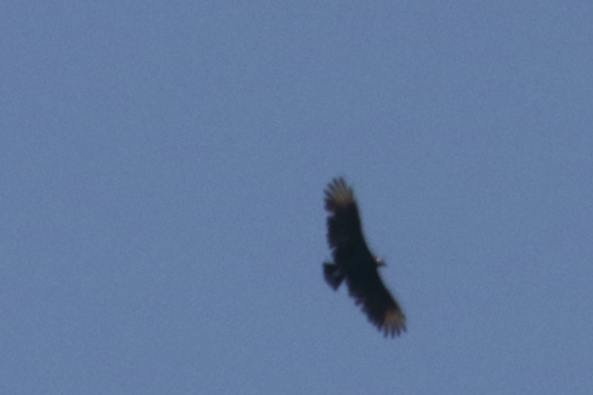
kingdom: Animalia
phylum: Chordata
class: Aves
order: Accipitriformes
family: Cathartidae
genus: Coragyps
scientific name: Coragyps atratus
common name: Black vulture
